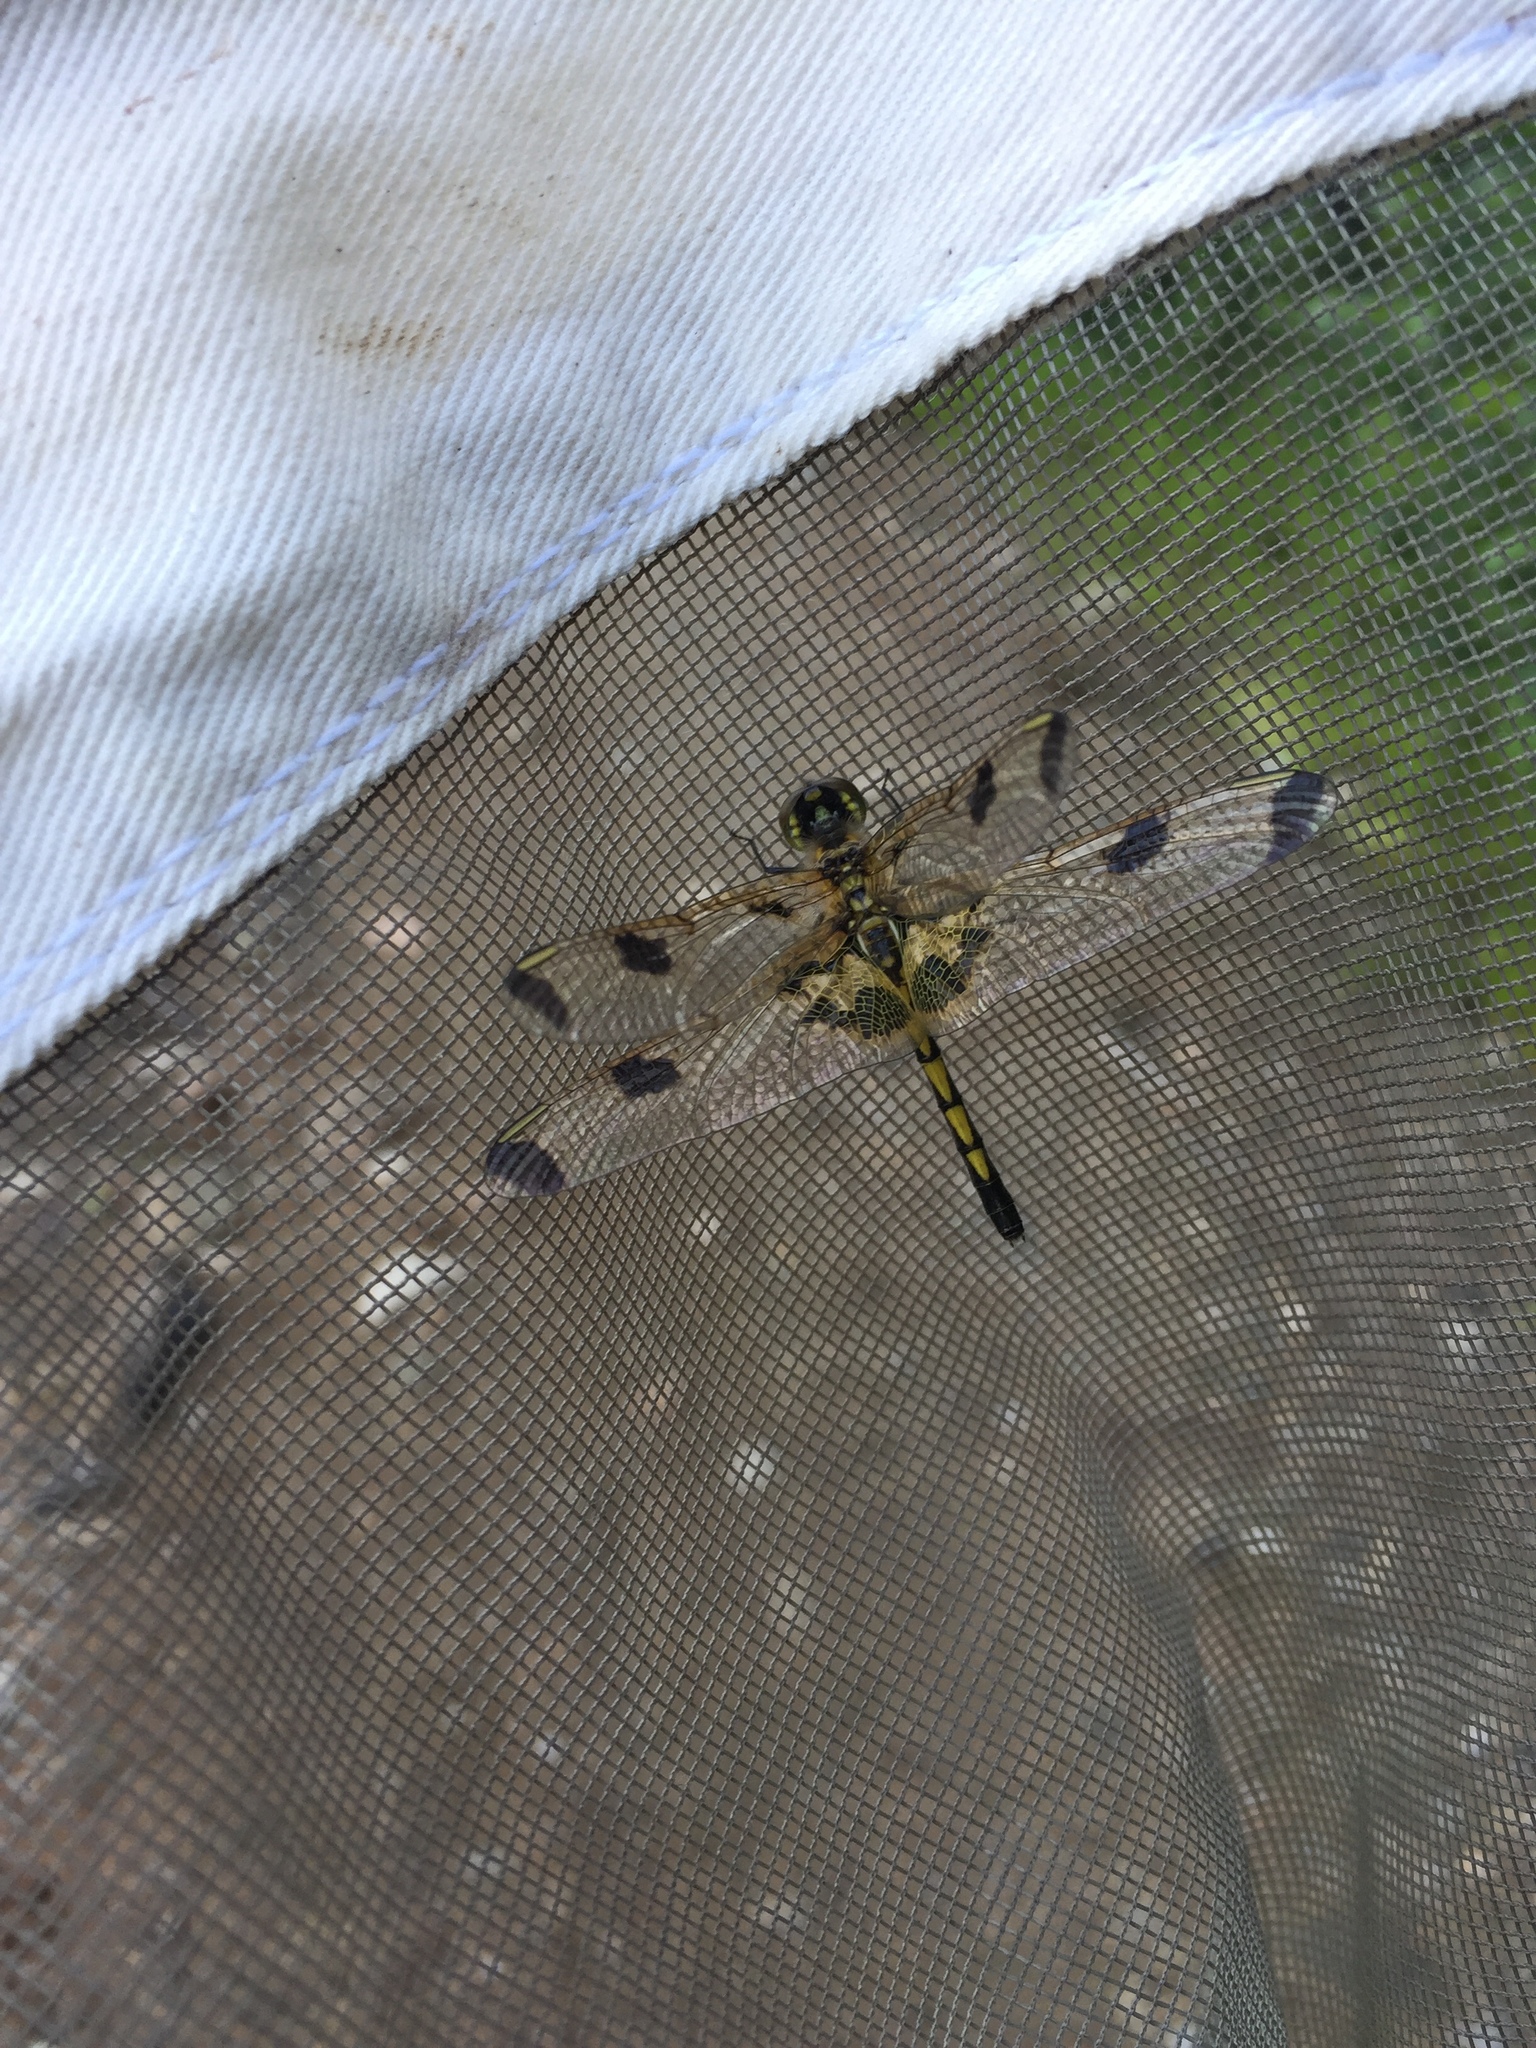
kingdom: Animalia
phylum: Arthropoda
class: Insecta
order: Odonata
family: Libellulidae
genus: Celithemis
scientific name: Celithemis elisa
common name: Calico pennant
